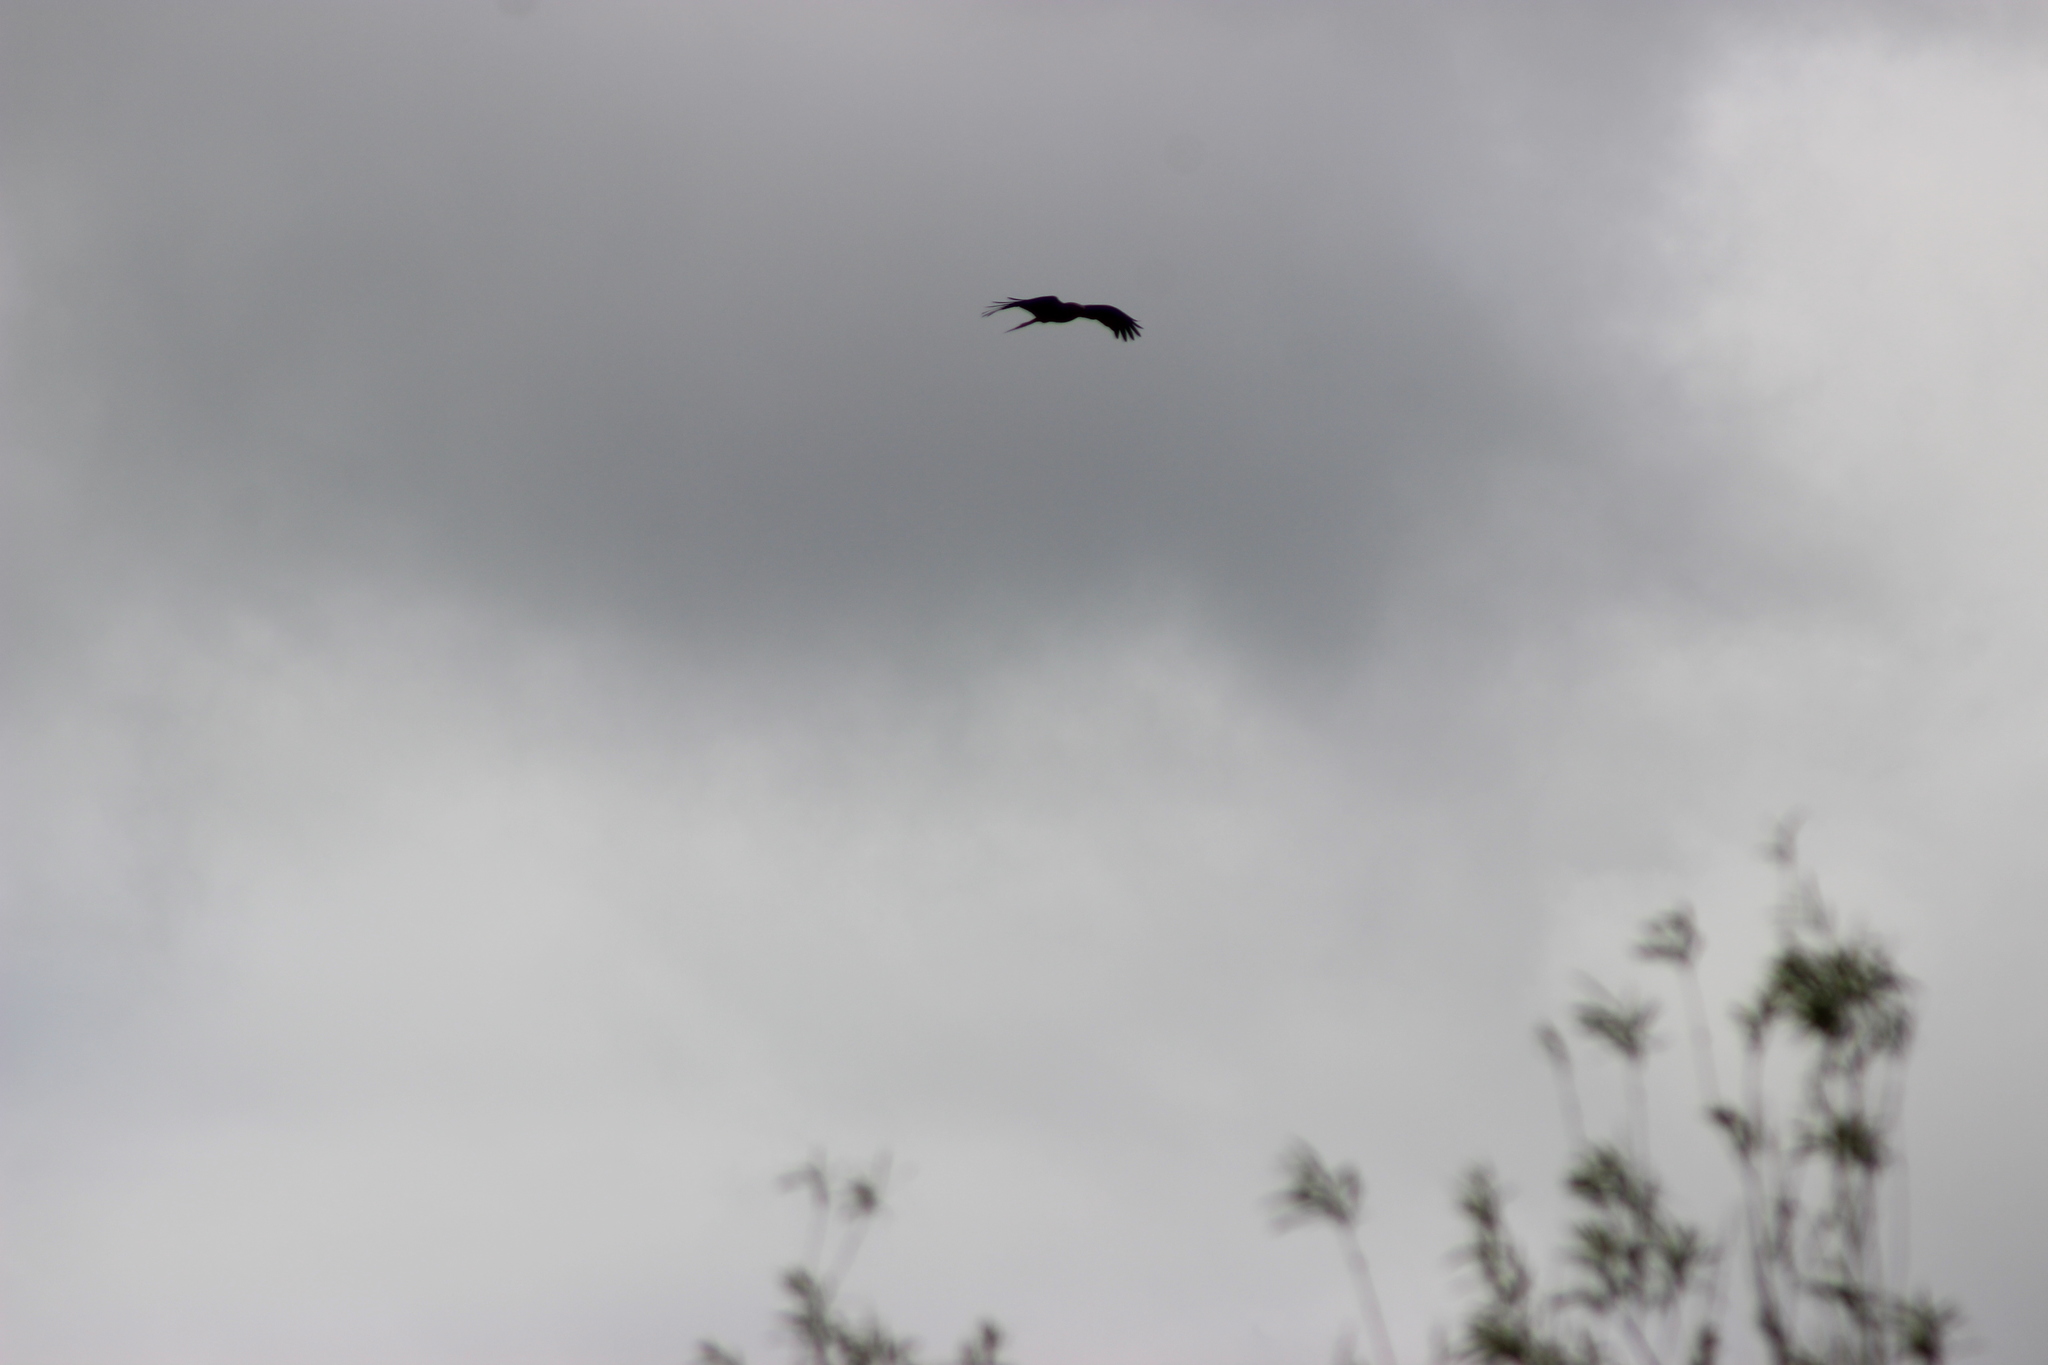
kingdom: Animalia
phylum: Chordata
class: Aves
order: Accipitriformes
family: Accipitridae
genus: Milvus
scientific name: Milvus migrans
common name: Black kite
